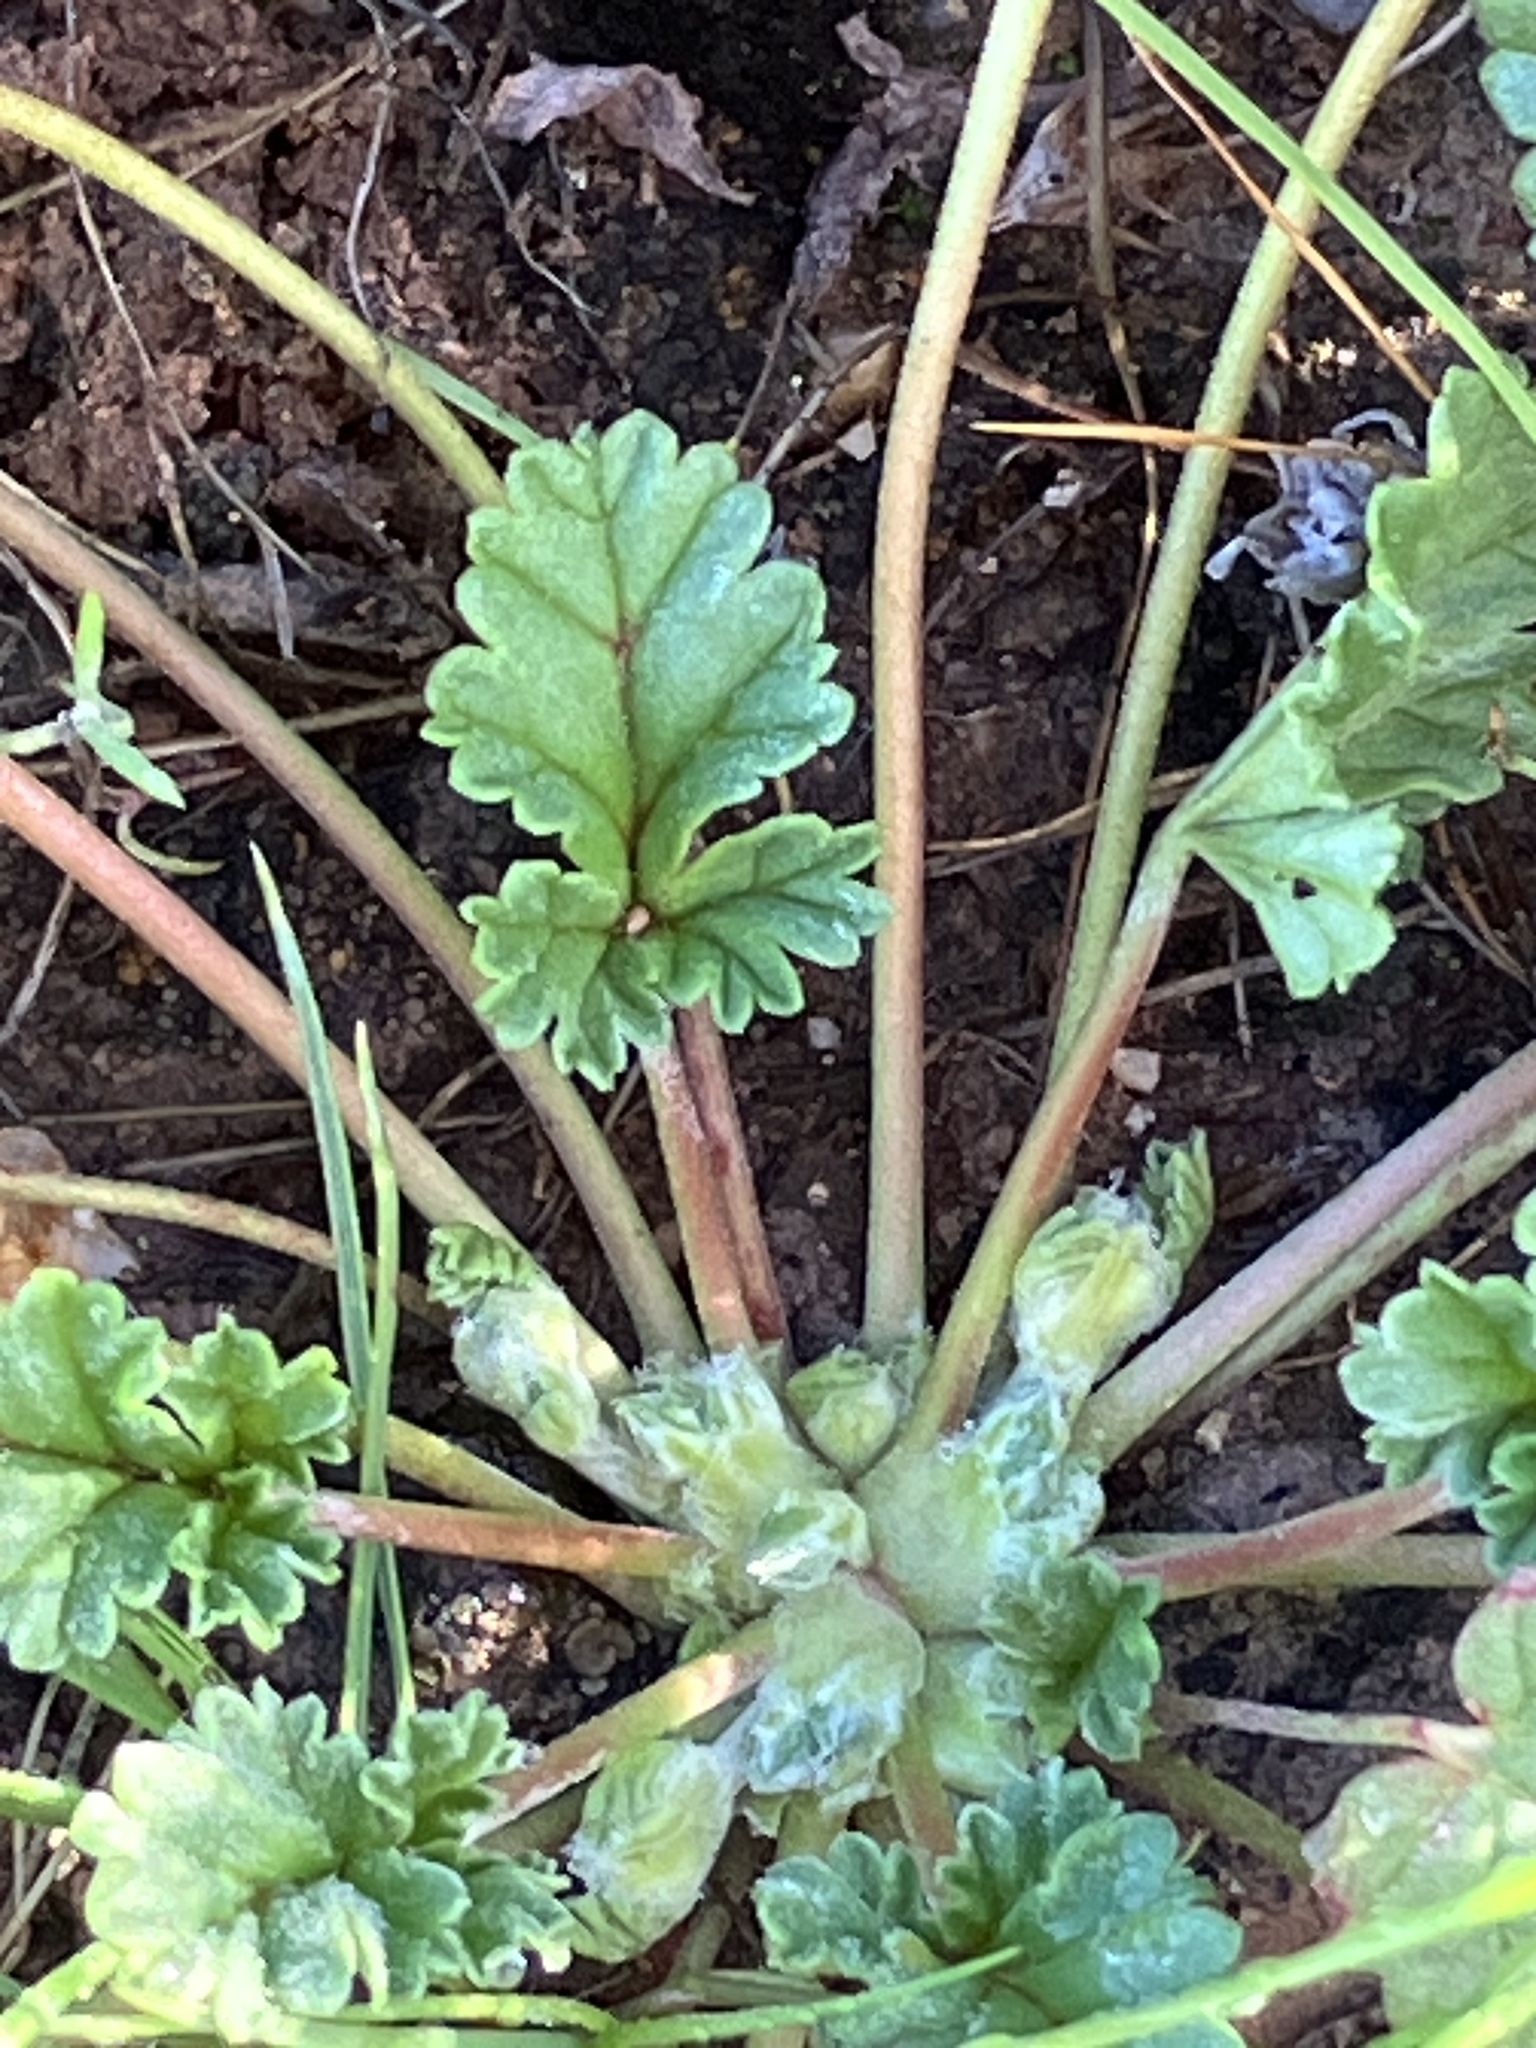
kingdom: Plantae
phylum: Tracheophyta
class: Magnoliopsida
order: Geraniales
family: Geraniaceae
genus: Erodium
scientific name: Erodium texanum
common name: Texas stork's-bill
